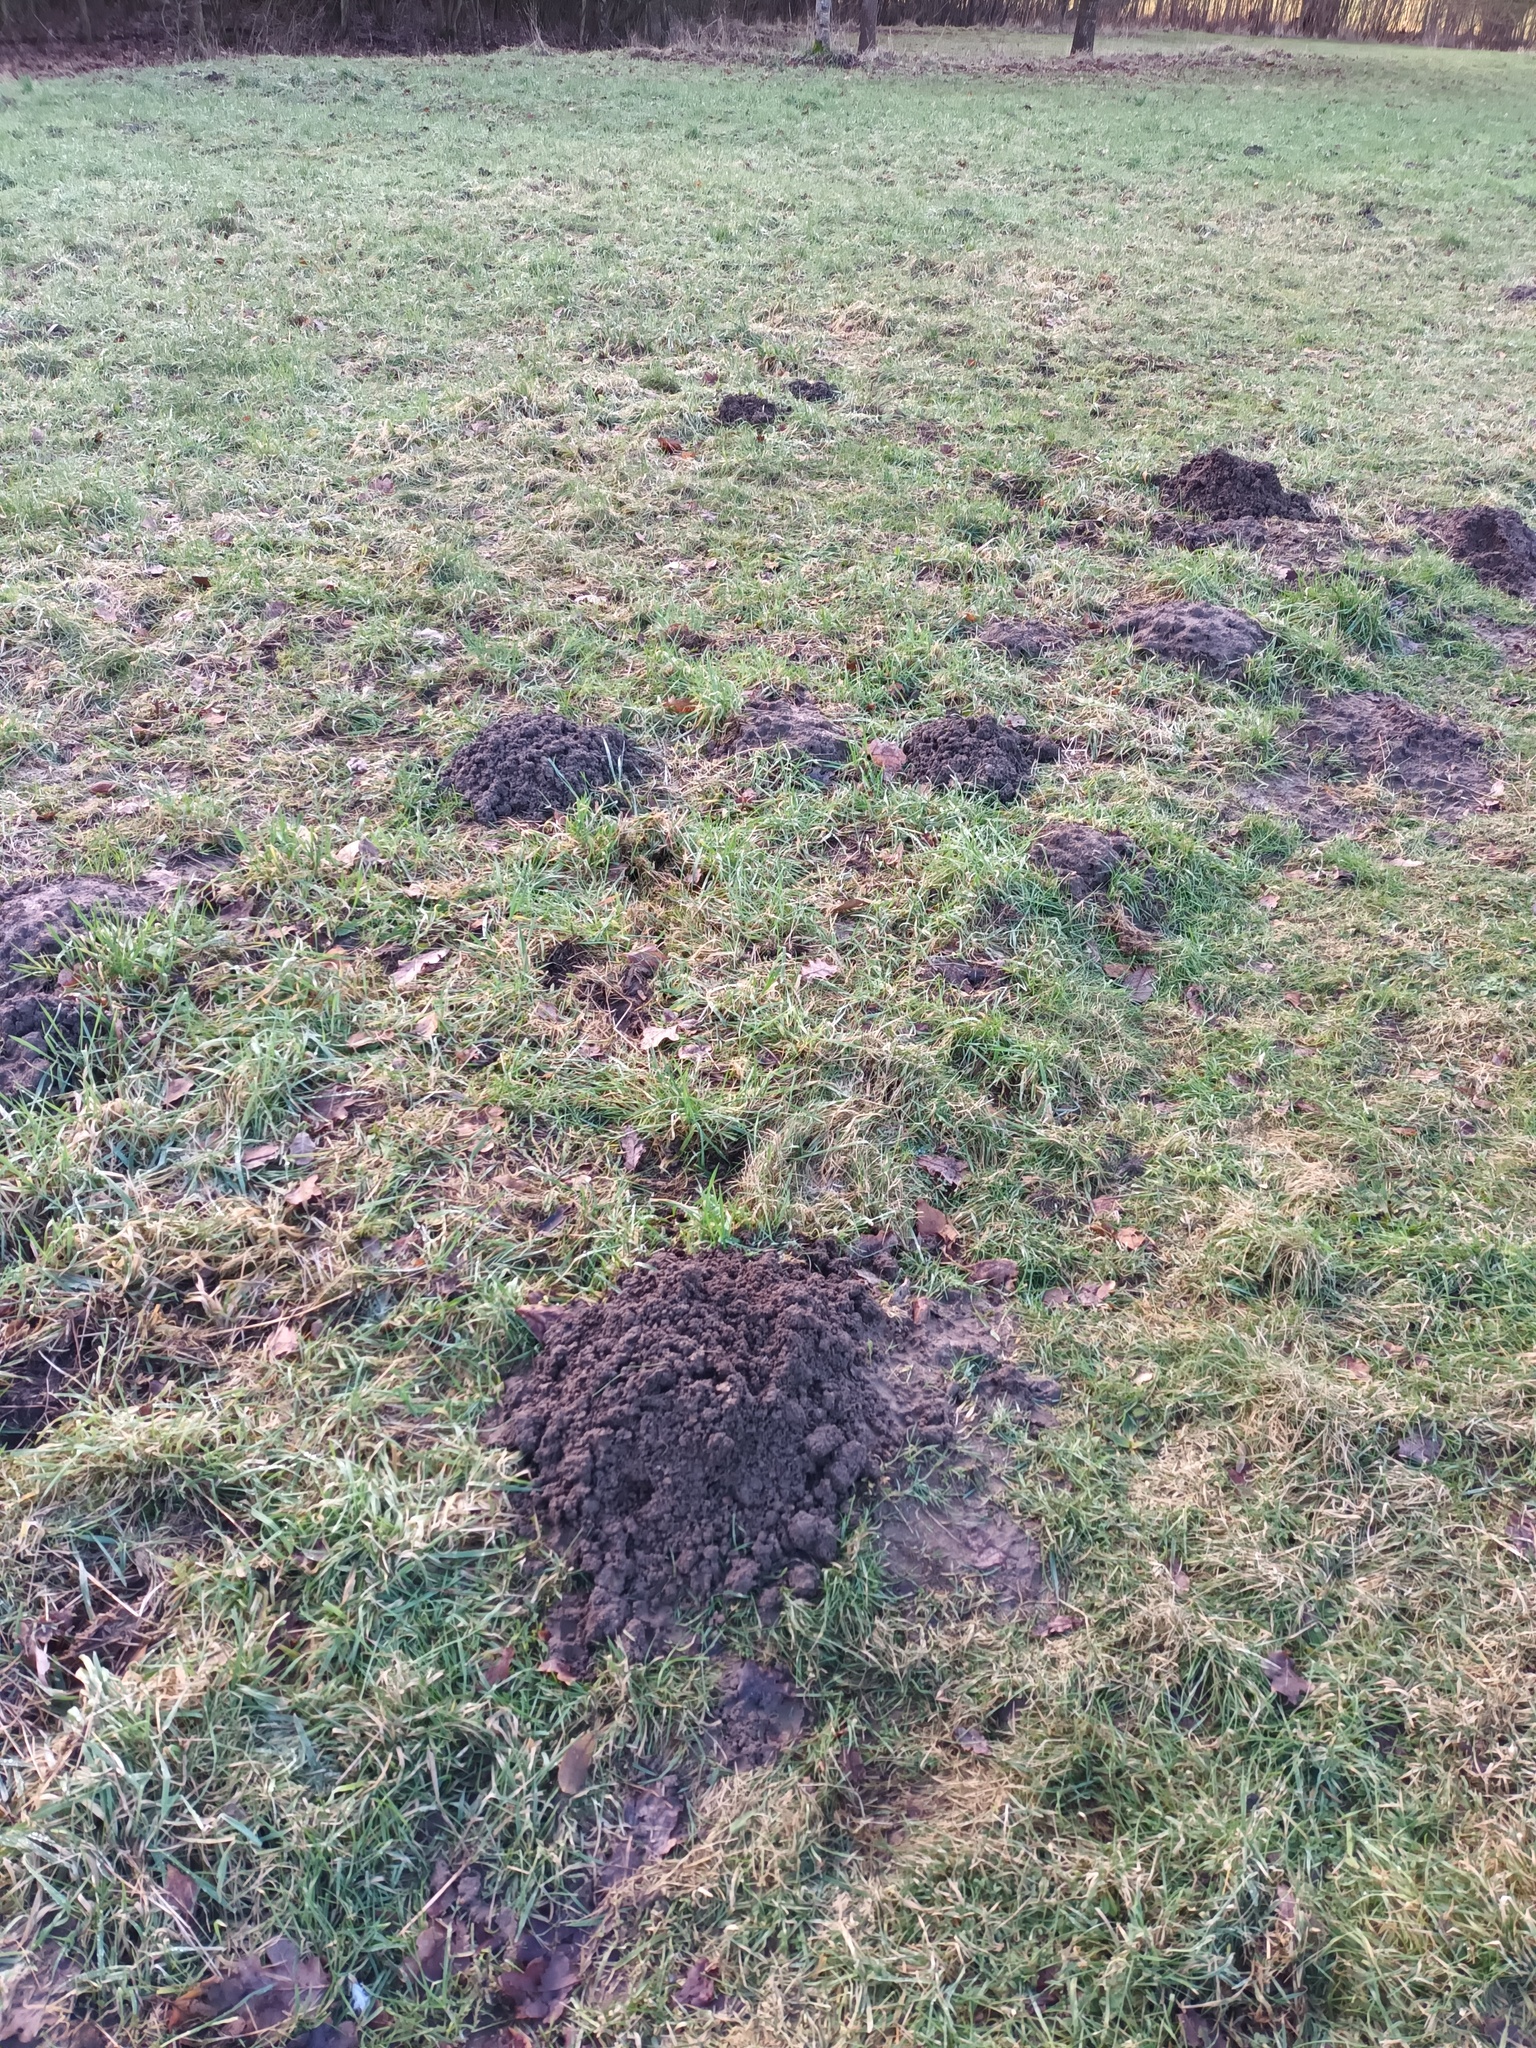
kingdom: Animalia
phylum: Chordata
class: Mammalia
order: Soricomorpha
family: Talpidae
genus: Talpa
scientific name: Talpa europaea
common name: European mole
